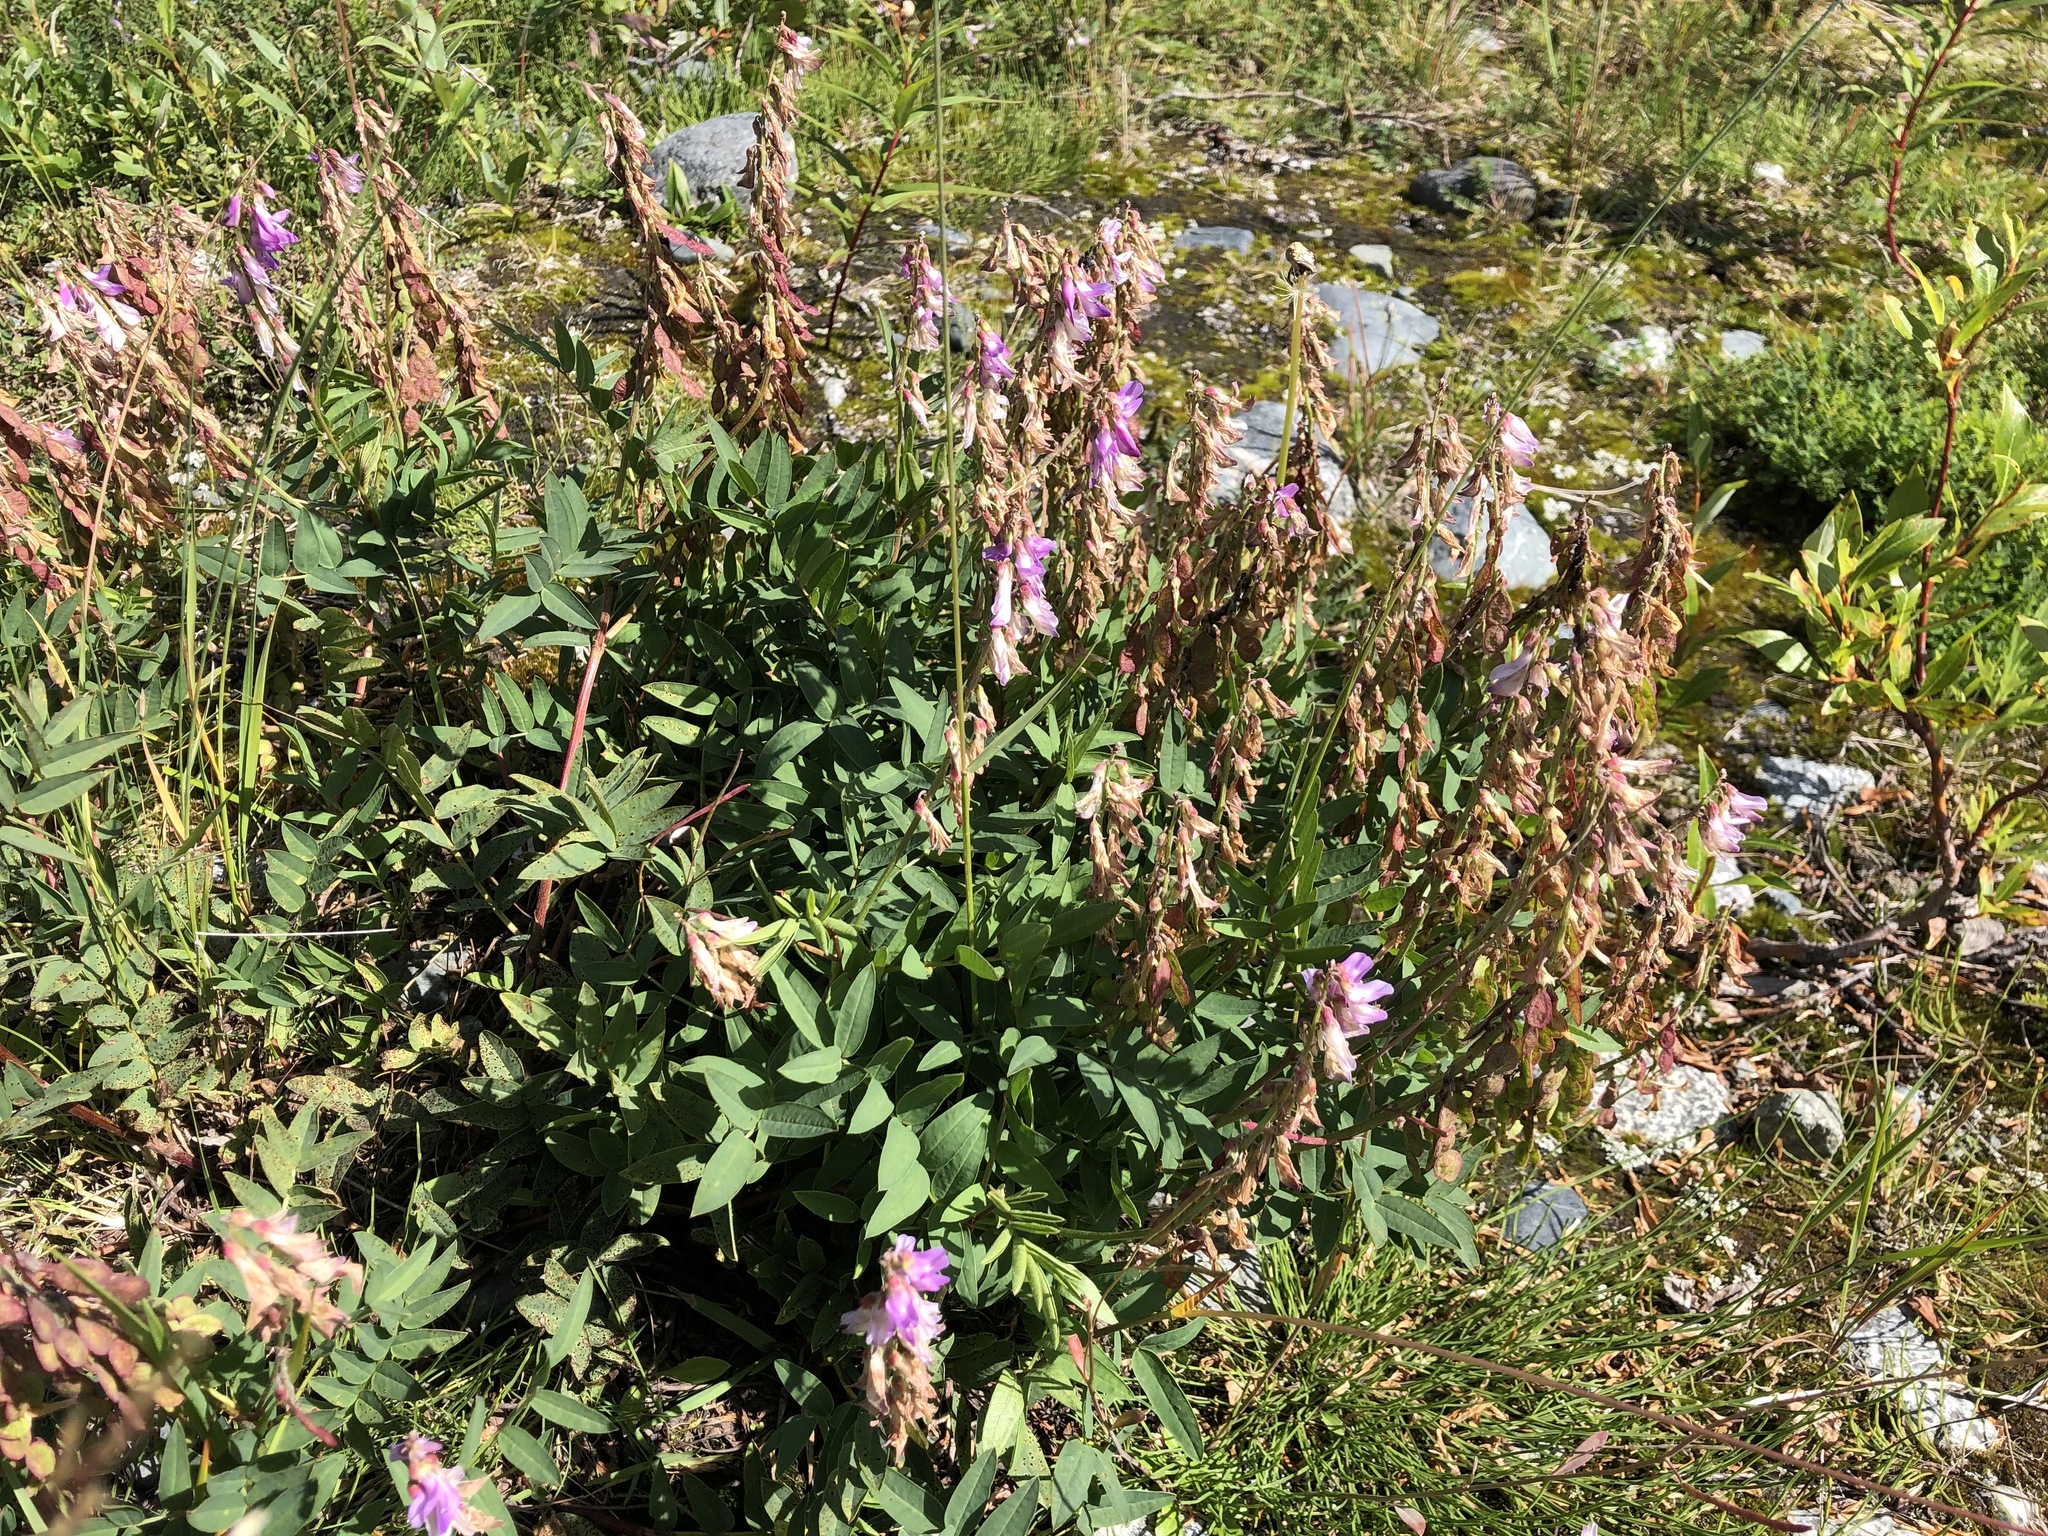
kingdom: Plantae
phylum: Tracheophyta
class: Magnoliopsida
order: Fabales
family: Fabaceae
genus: Hedysarum
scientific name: Hedysarum
